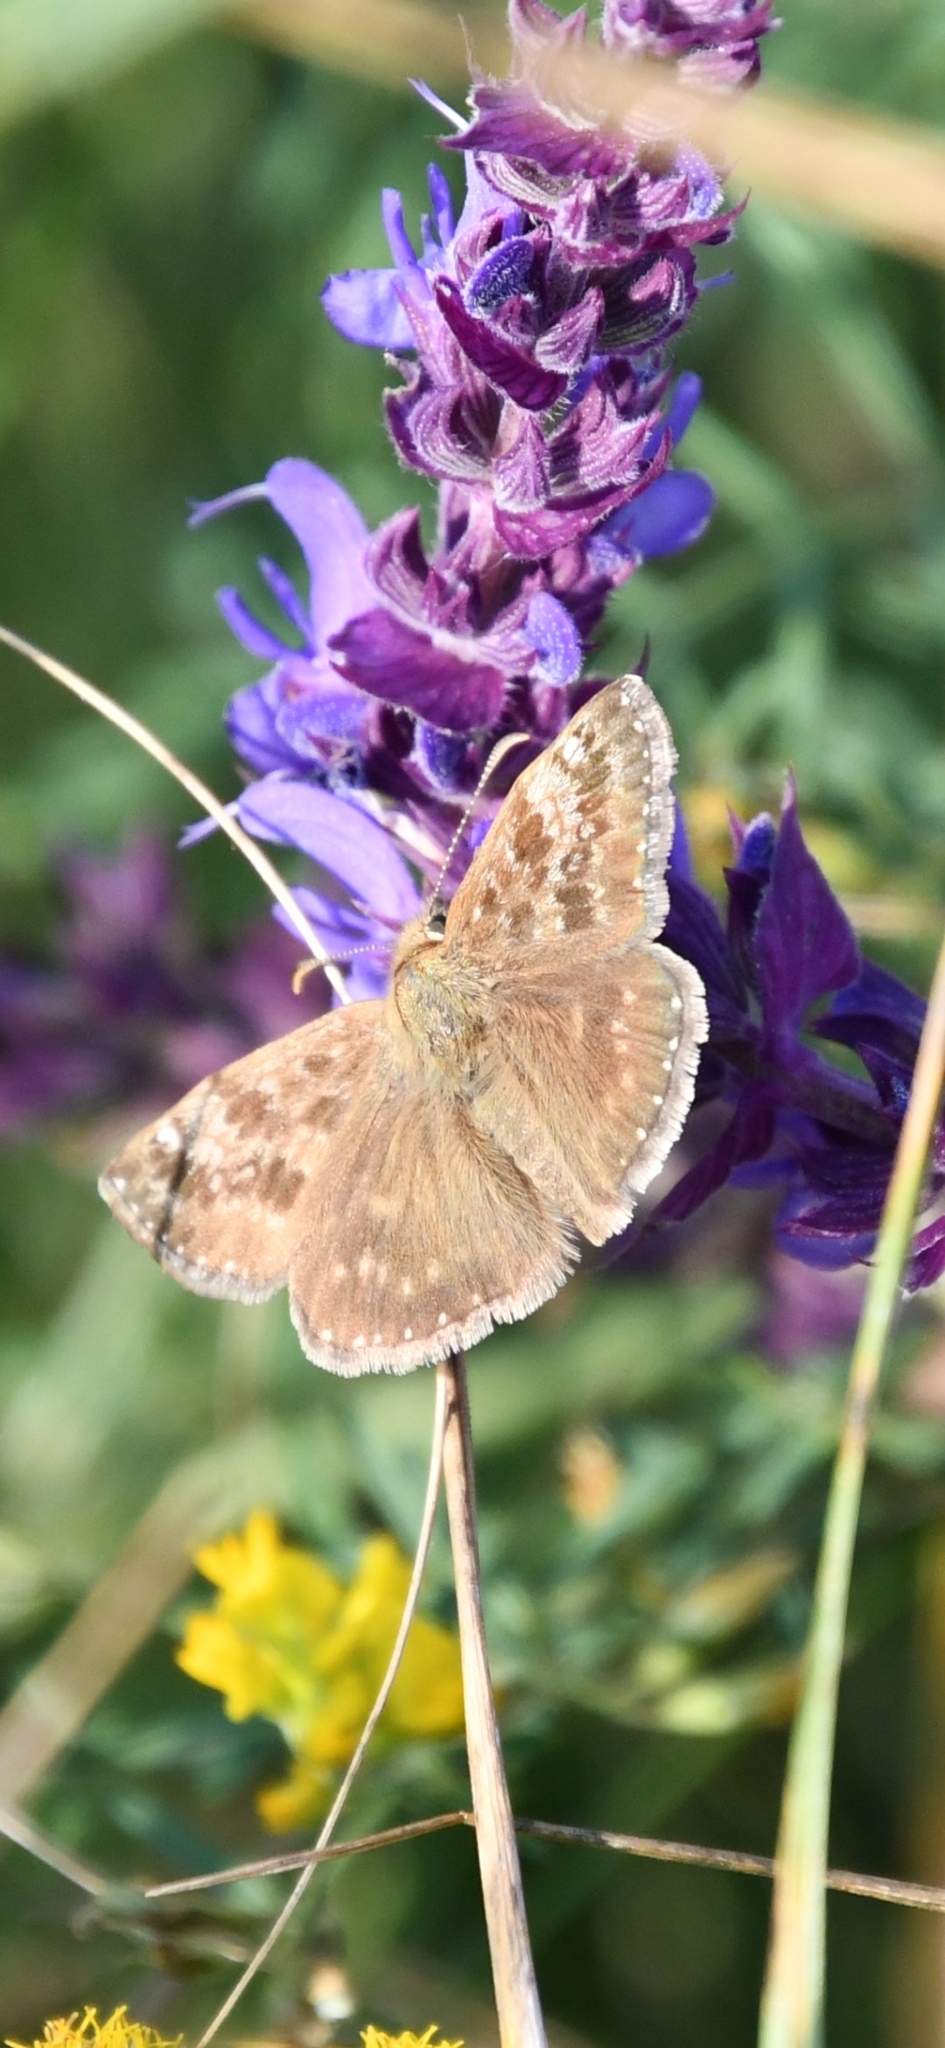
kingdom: Animalia
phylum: Arthropoda
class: Insecta
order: Lepidoptera
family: Hesperiidae
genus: Erynnis
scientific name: Erynnis tages
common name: Dingy skipper
